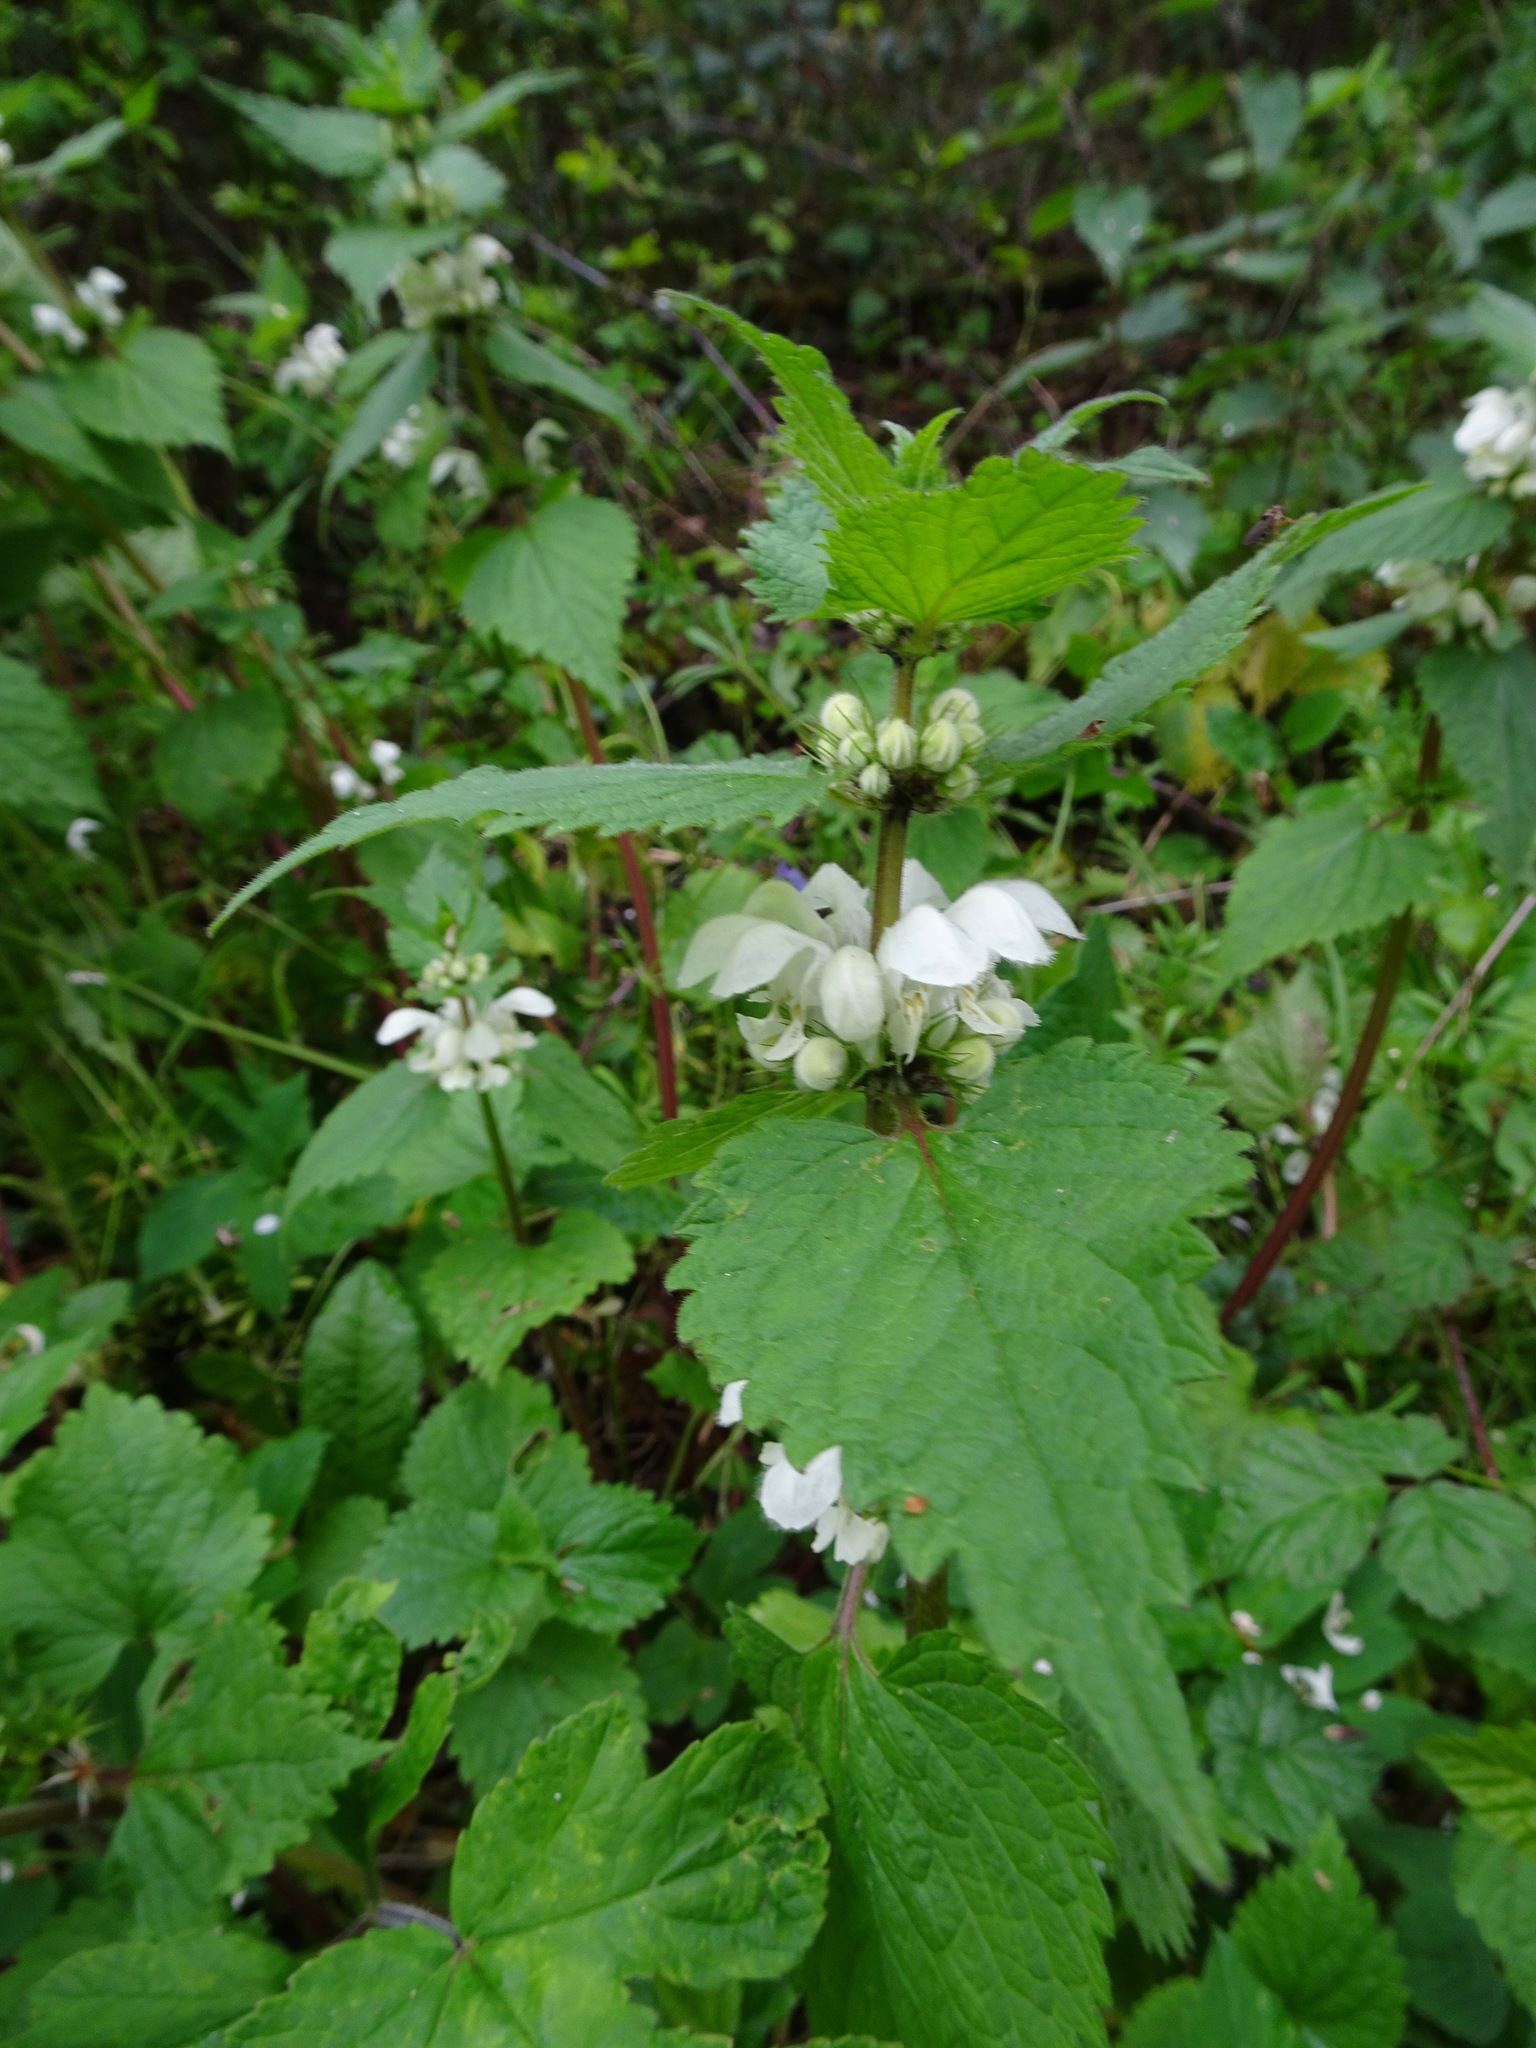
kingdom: Plantae
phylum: Tracheophyta
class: Magnoliopsida
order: Lamiales
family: Lamiaceae
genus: Lamium
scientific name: Lamium album
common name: White dead-nettle
